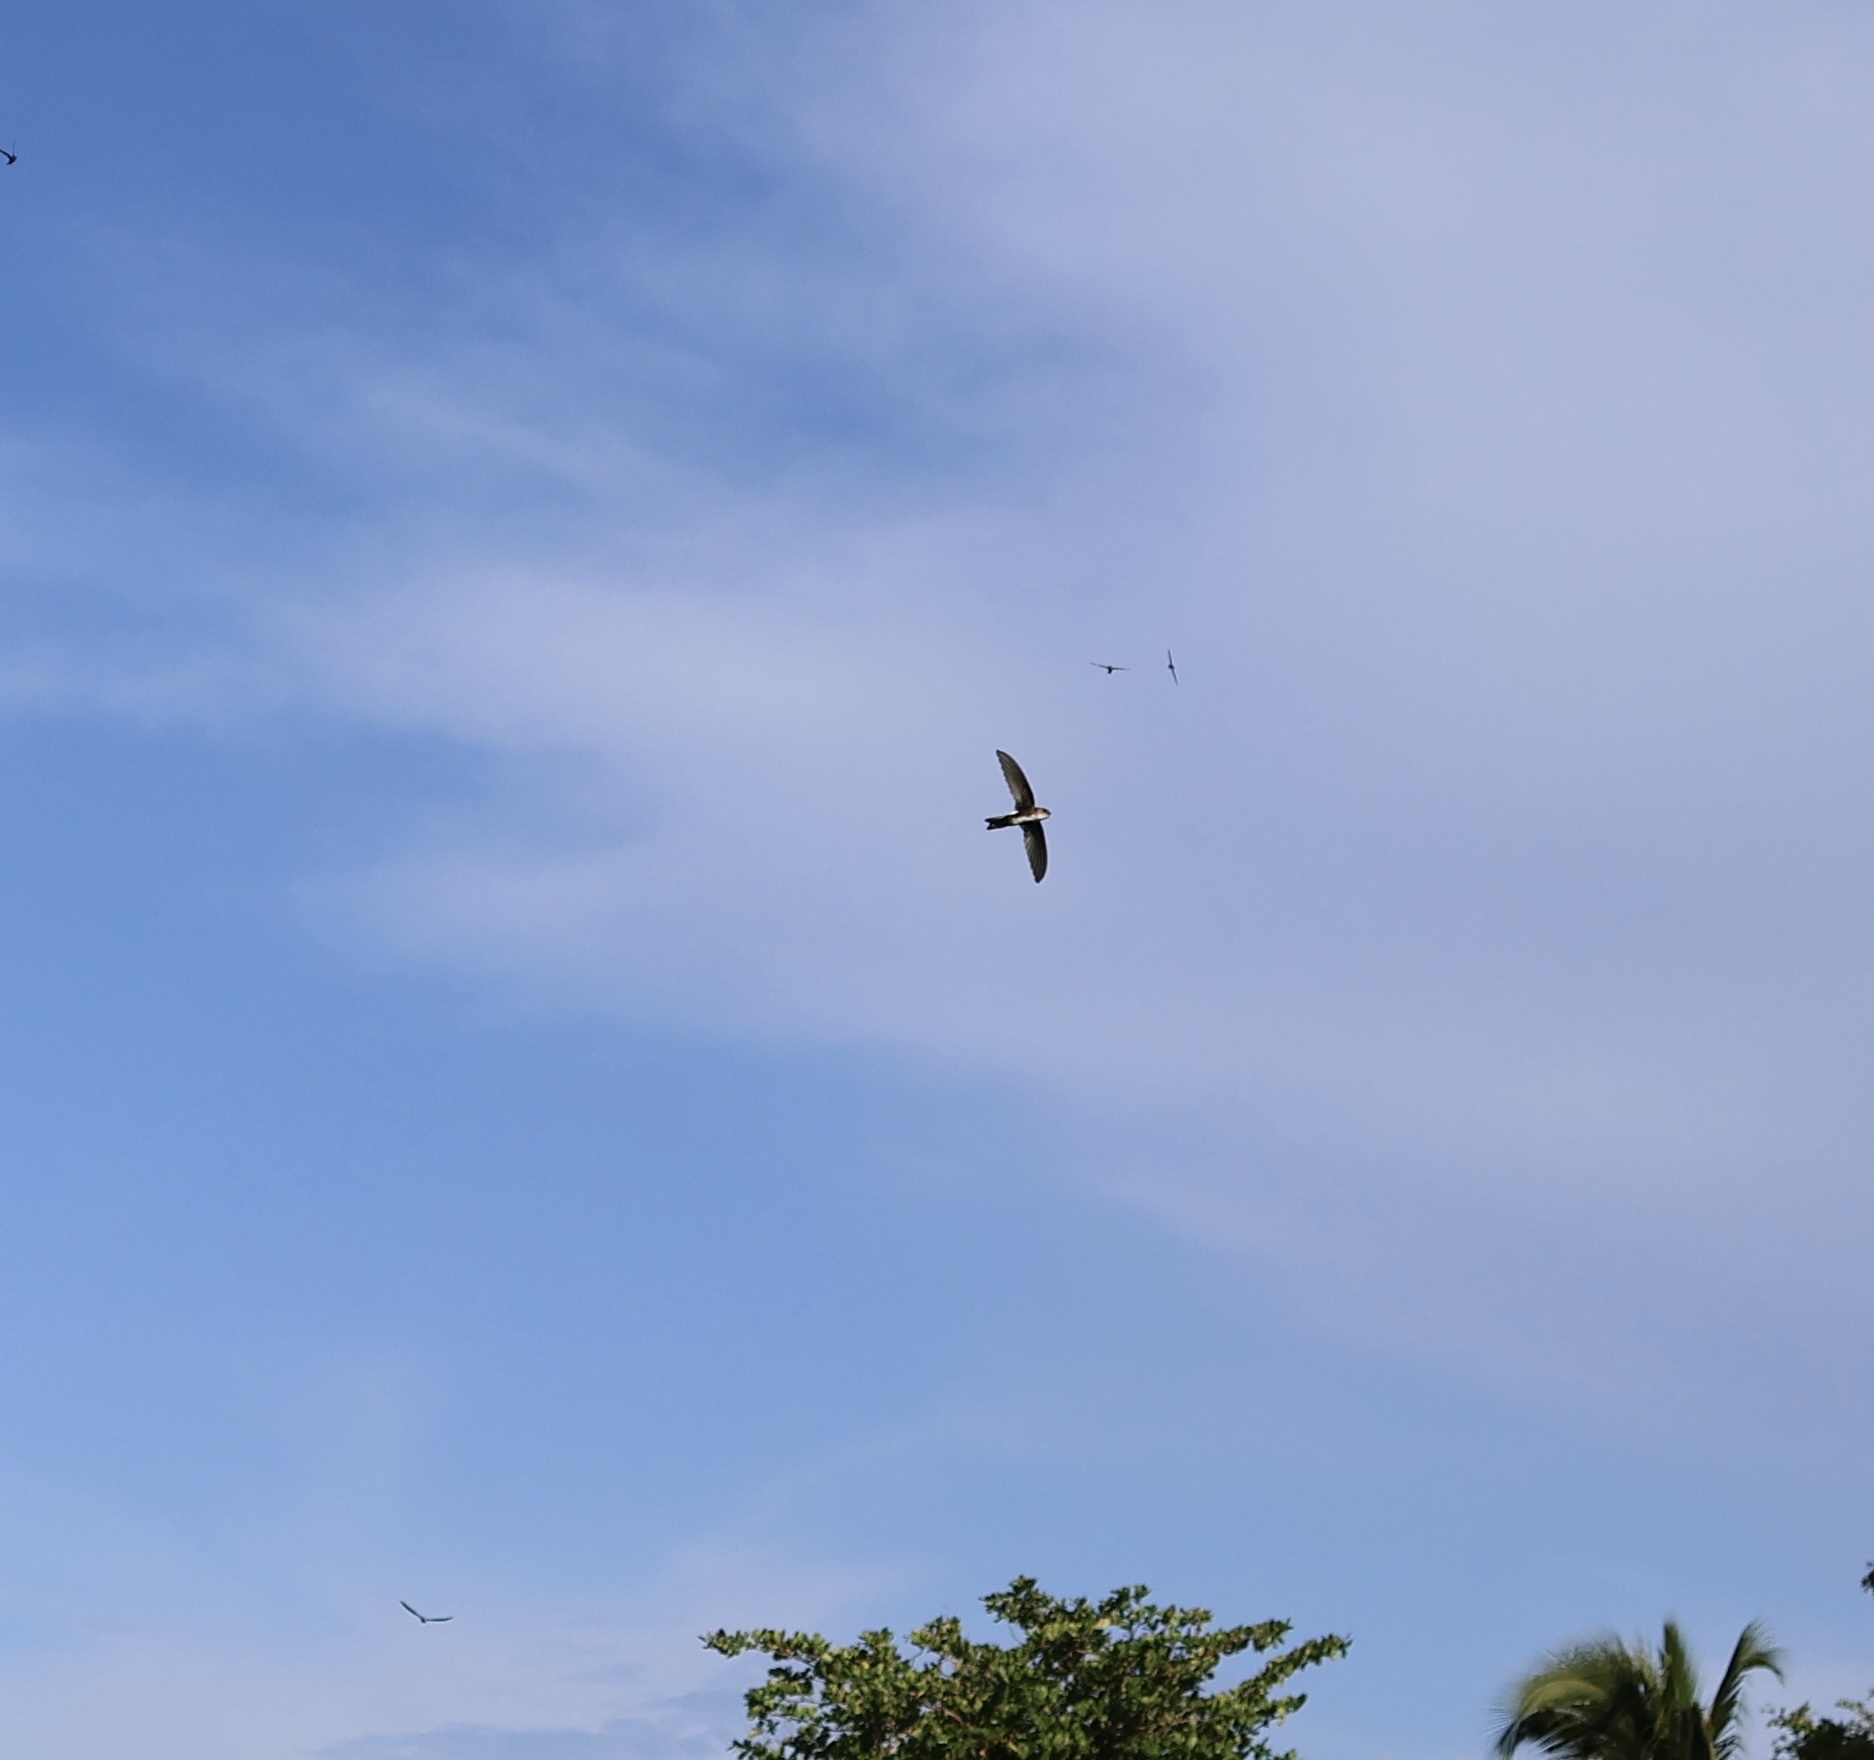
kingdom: Animalia
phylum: Chordata
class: Aves
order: Apodiformes
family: Apodidae
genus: Tachornis
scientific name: Tachornis phoenicobia
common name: Antillean palm swift
